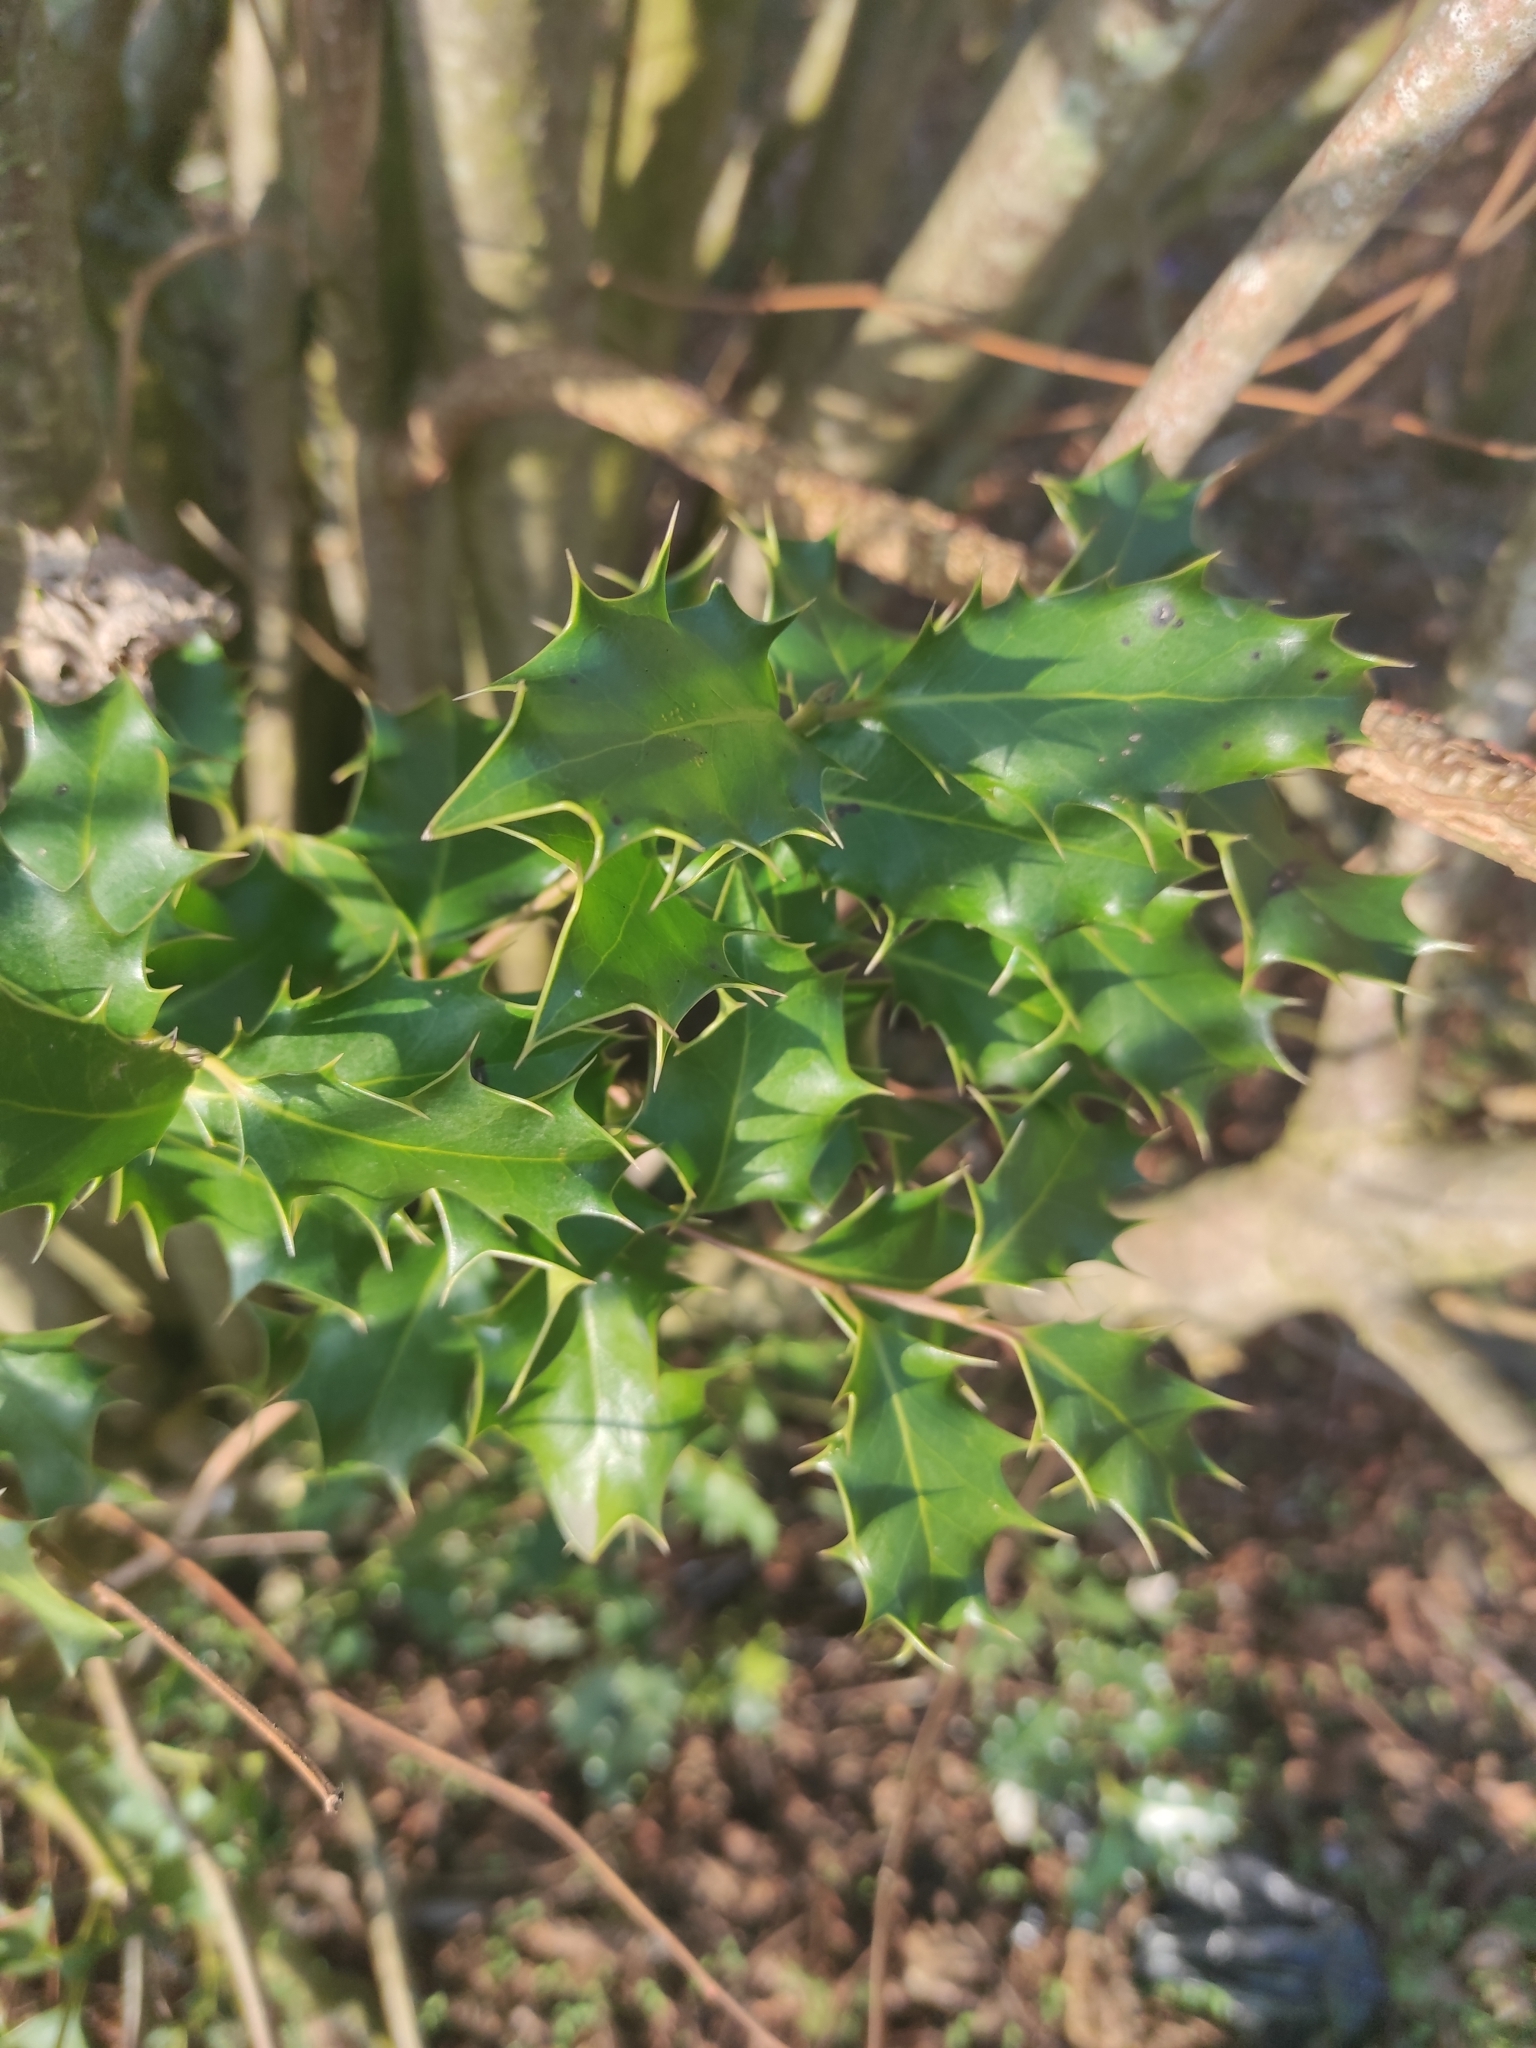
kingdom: Plantae
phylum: Tracheophyta
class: Magnoliopsida
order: Aquifoliales
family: Aquifoliaceae
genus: Ilex
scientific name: Ilex aquifolium
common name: English holly
